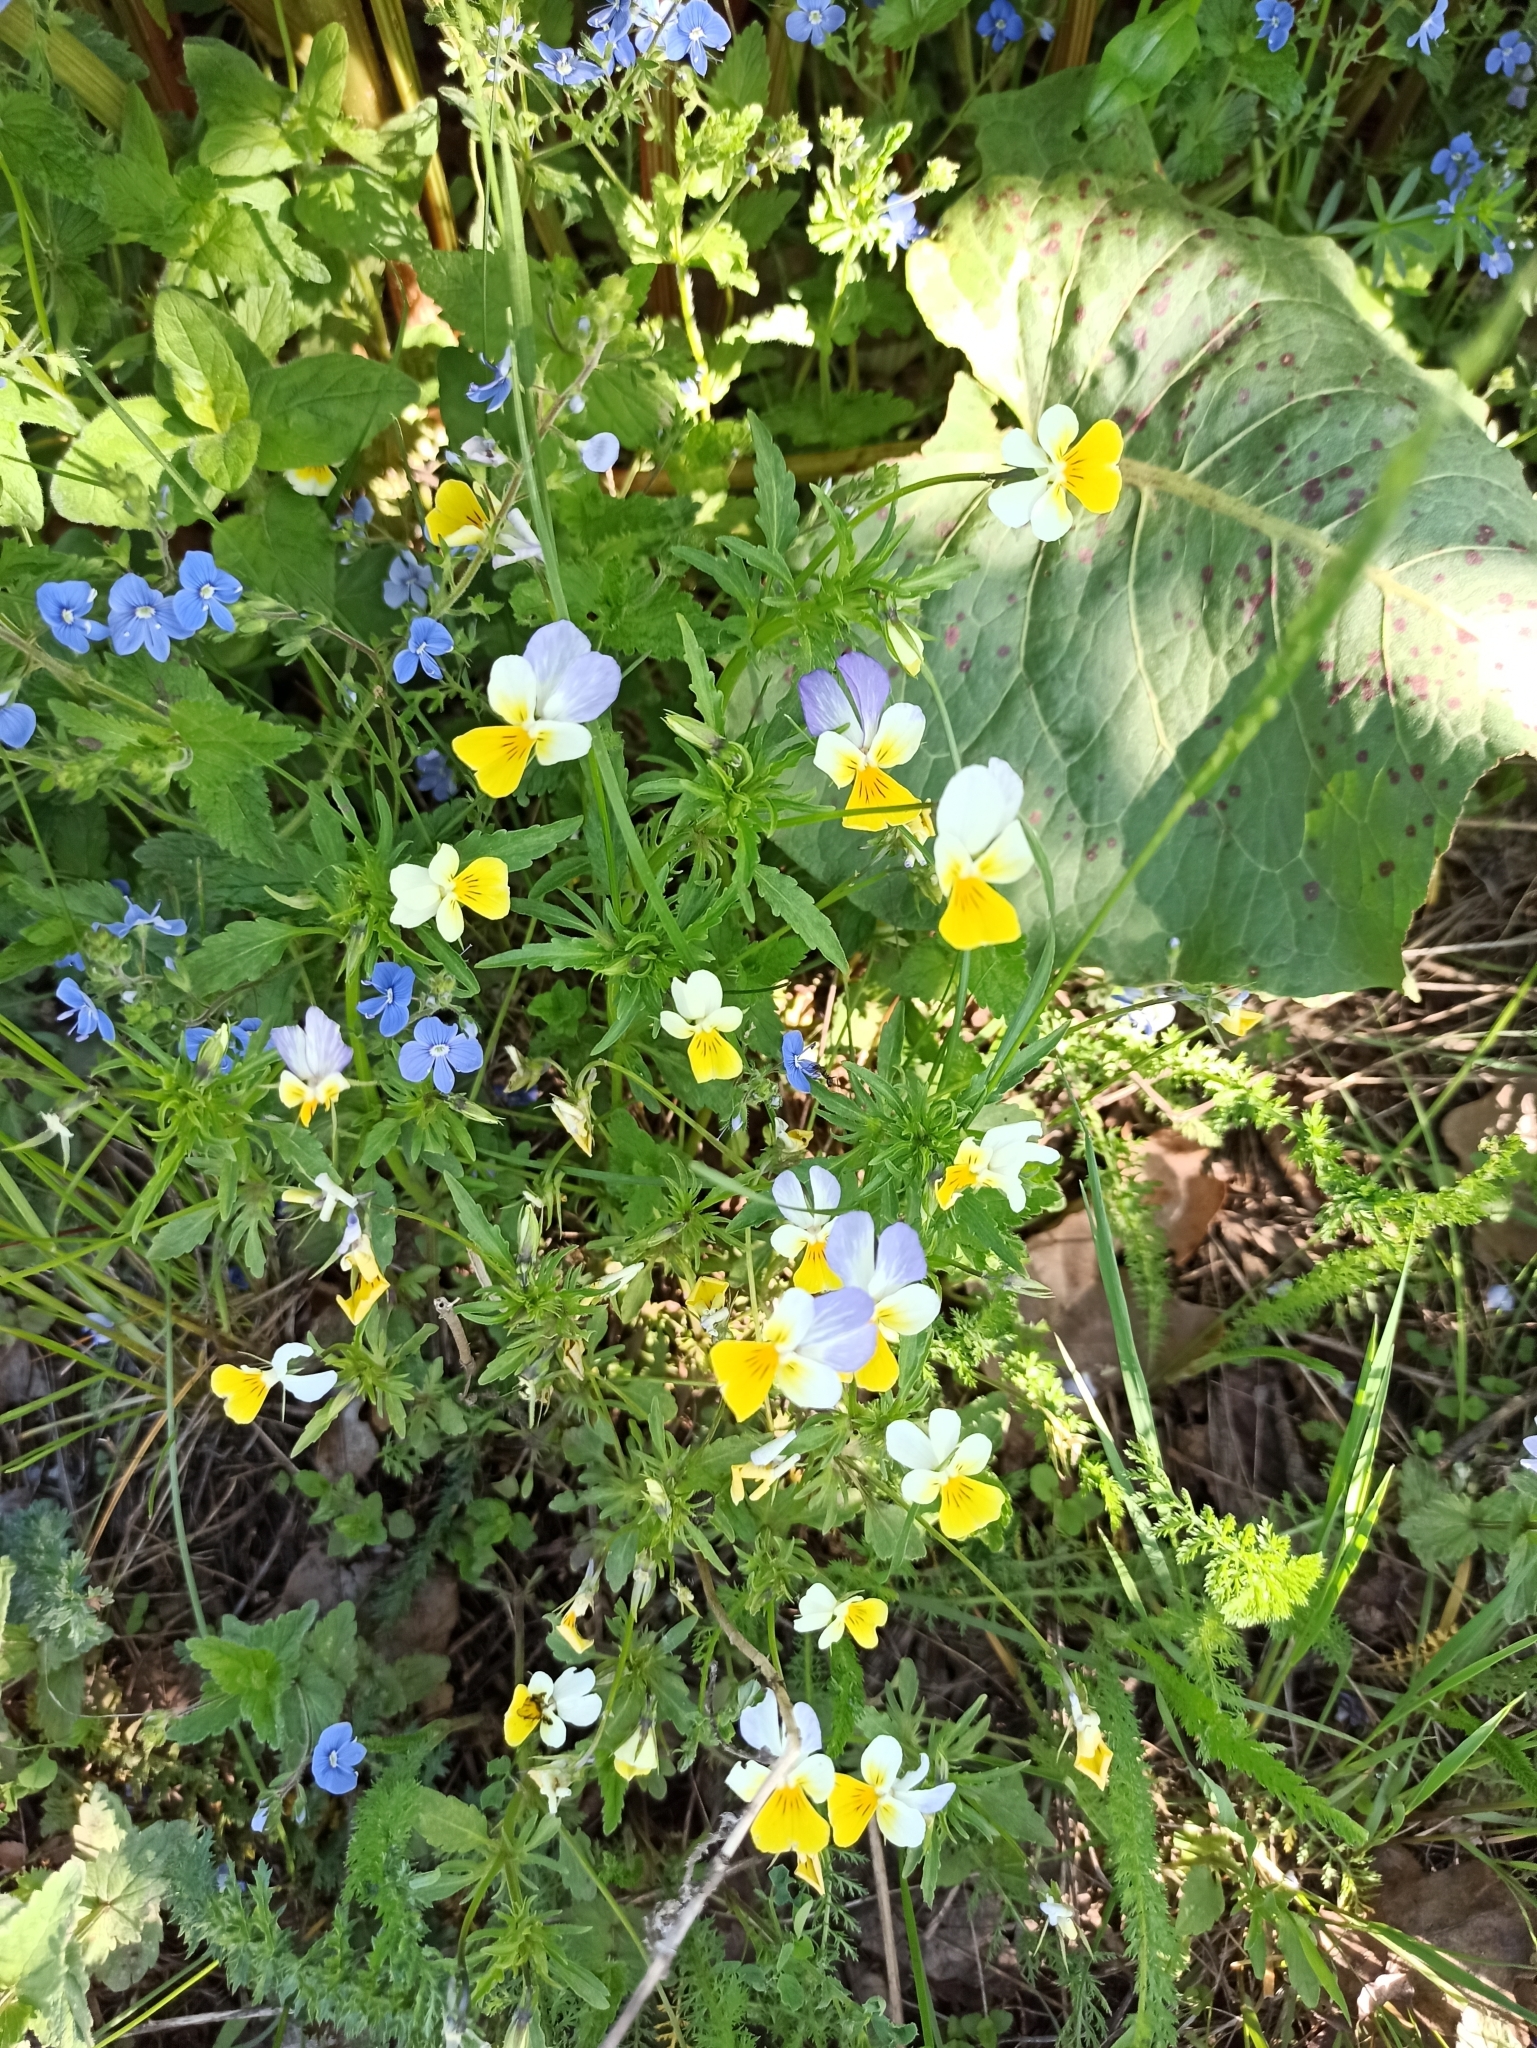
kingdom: Plantae
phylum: Tracheophyta
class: Magnoliopsida
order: Malpighiales
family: Violaceae
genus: Viola
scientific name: Viola tricolor
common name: Pansy
